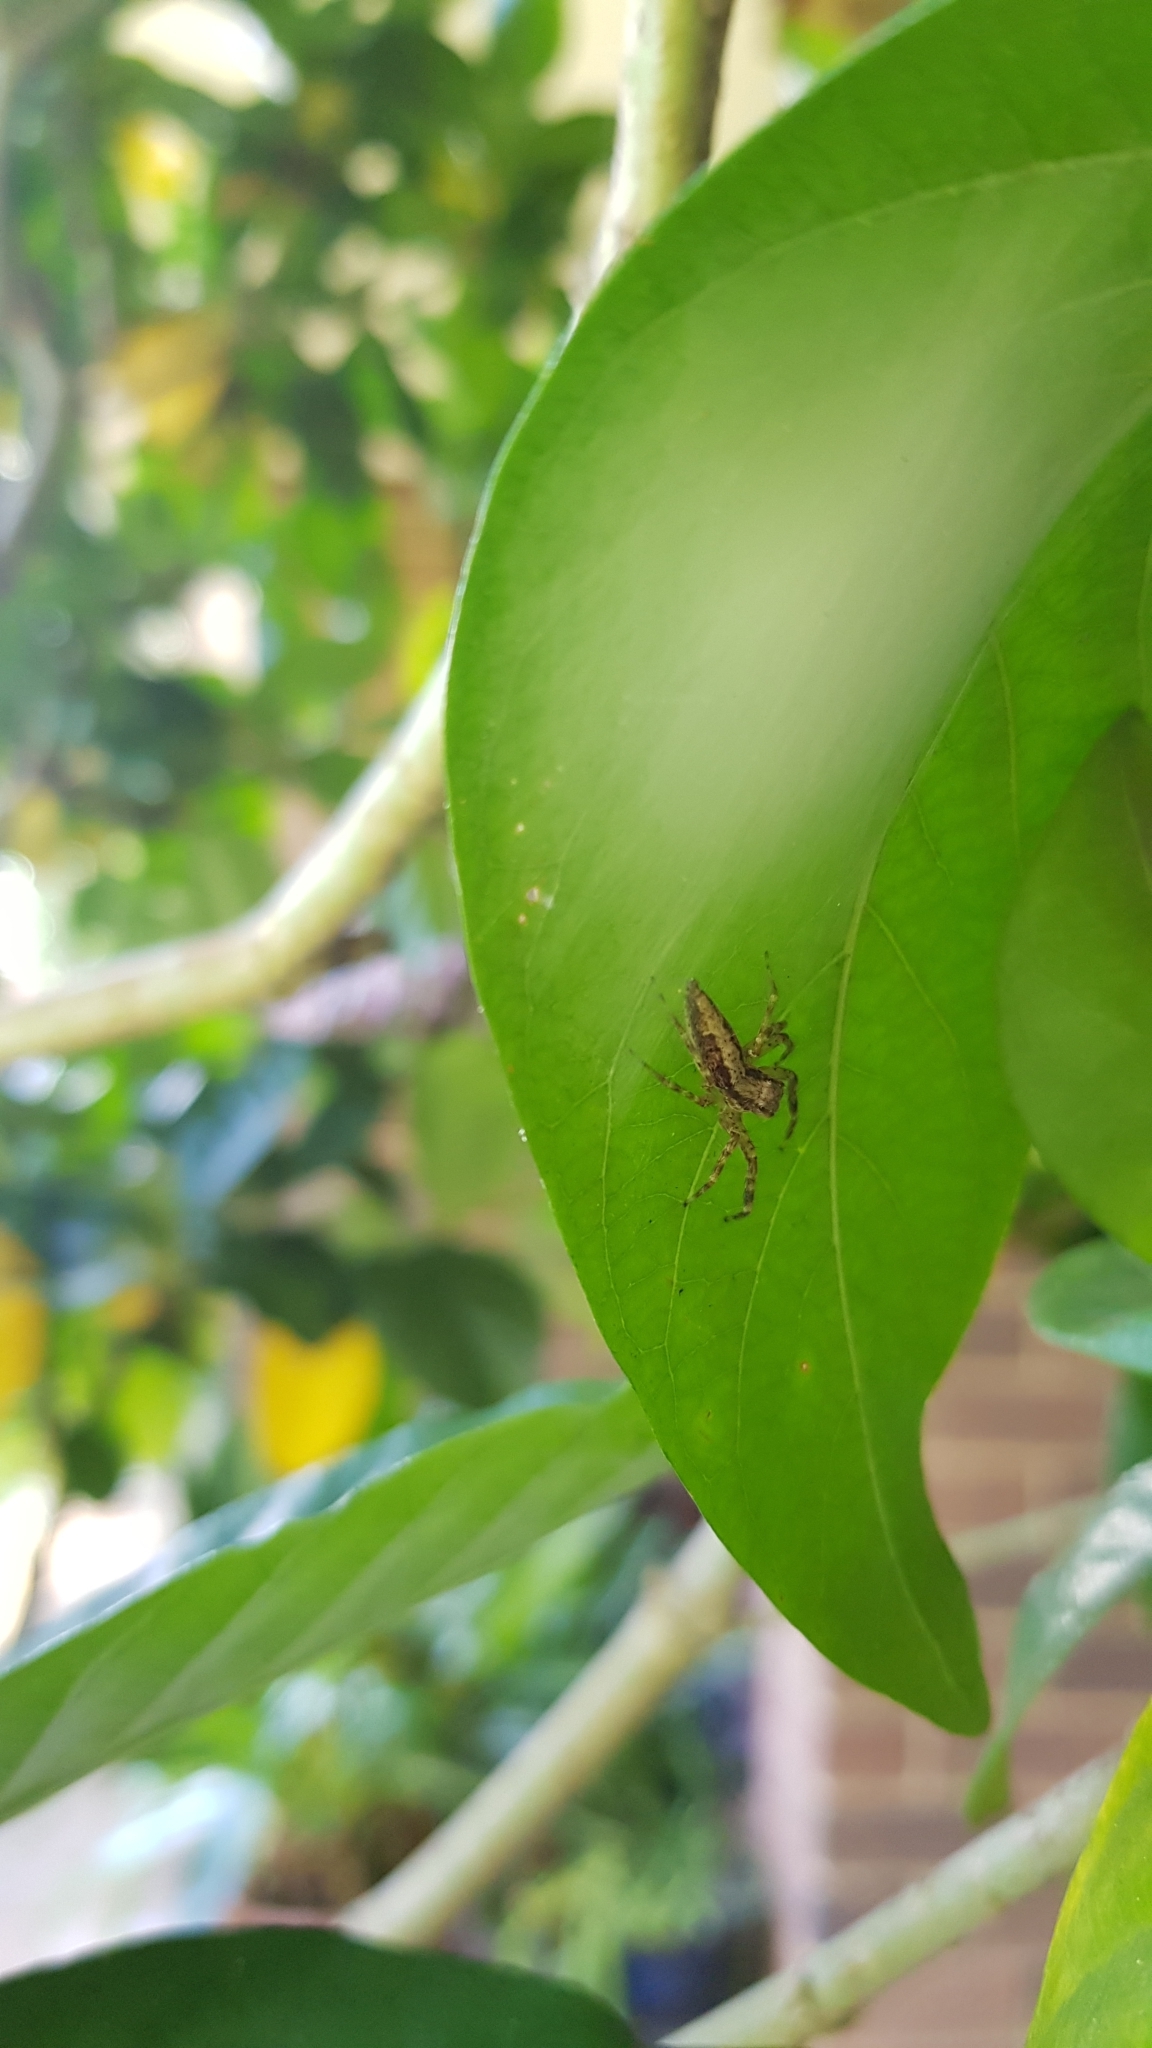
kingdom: Animalia
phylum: Arthropoda
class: Arachnida
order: Araneae
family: Salticidae
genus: Helpis
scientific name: Helpis minitabunda
